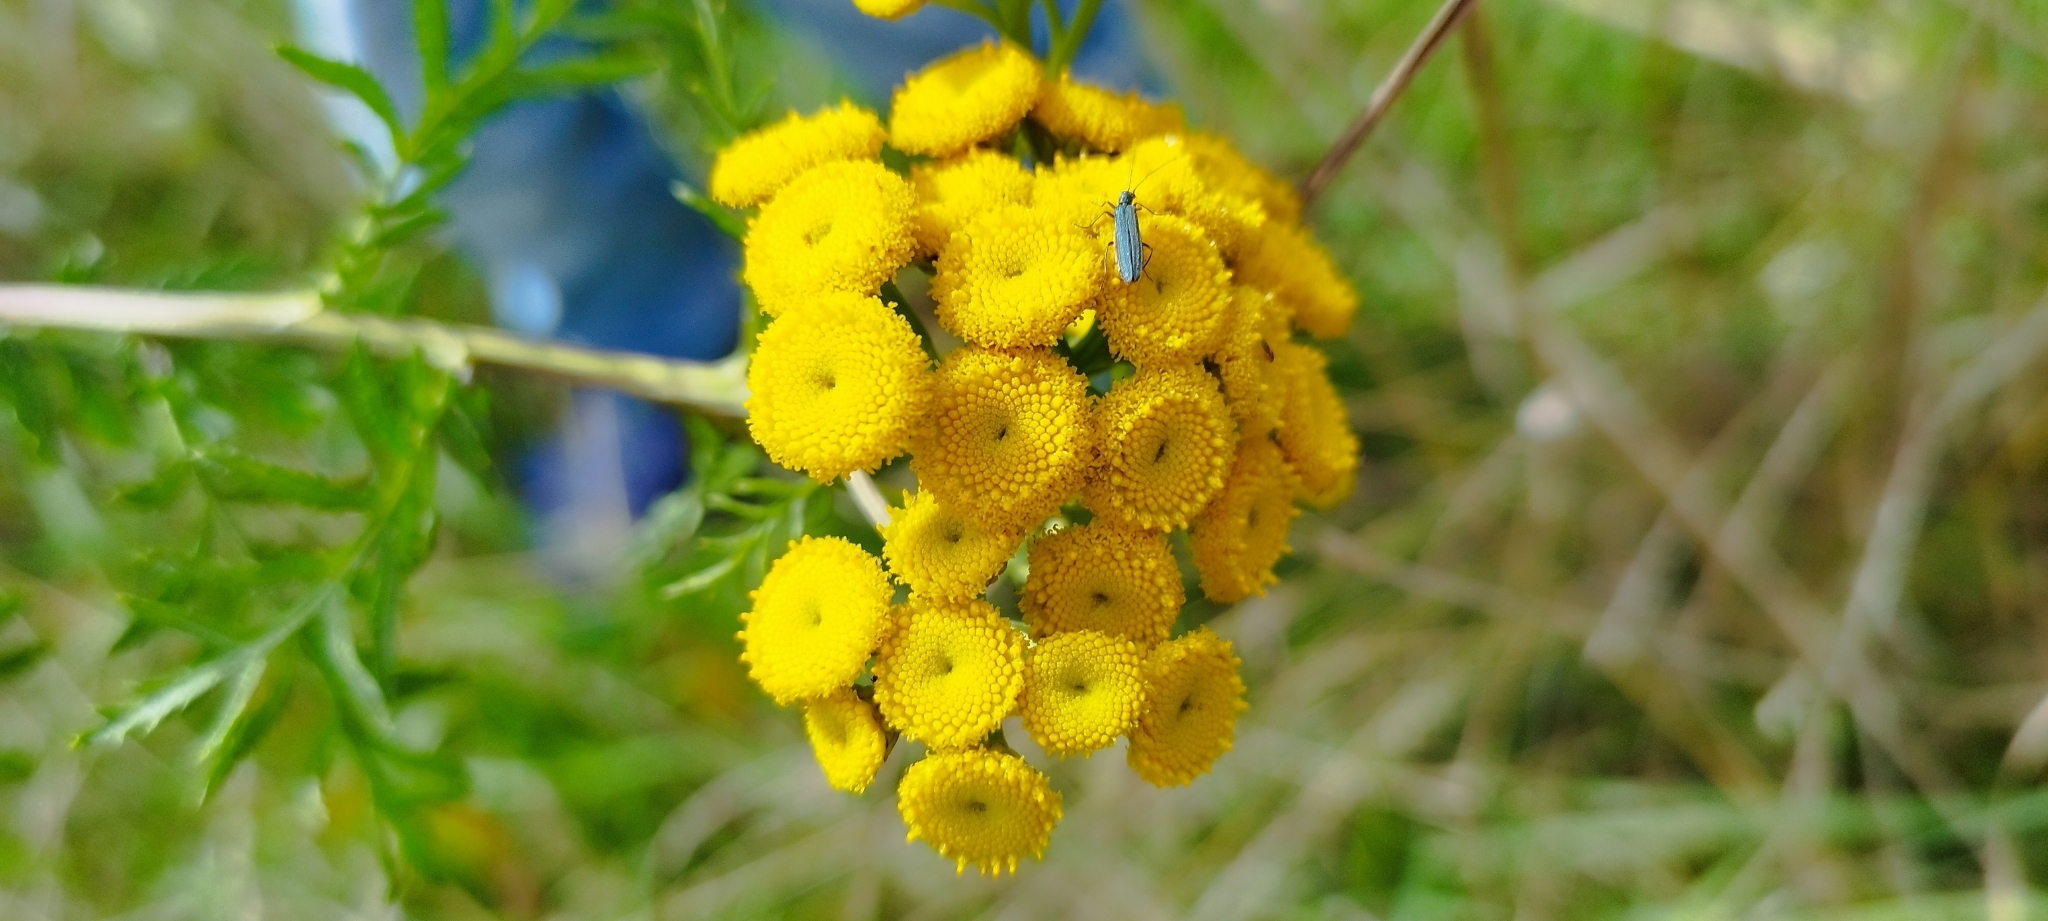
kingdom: Plantae
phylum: Tracheophyta
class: Magnoliopsida
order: Asterales
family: Asteraceae
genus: Tanacetum
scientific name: Tanacetum vulgare
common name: Common tansy
